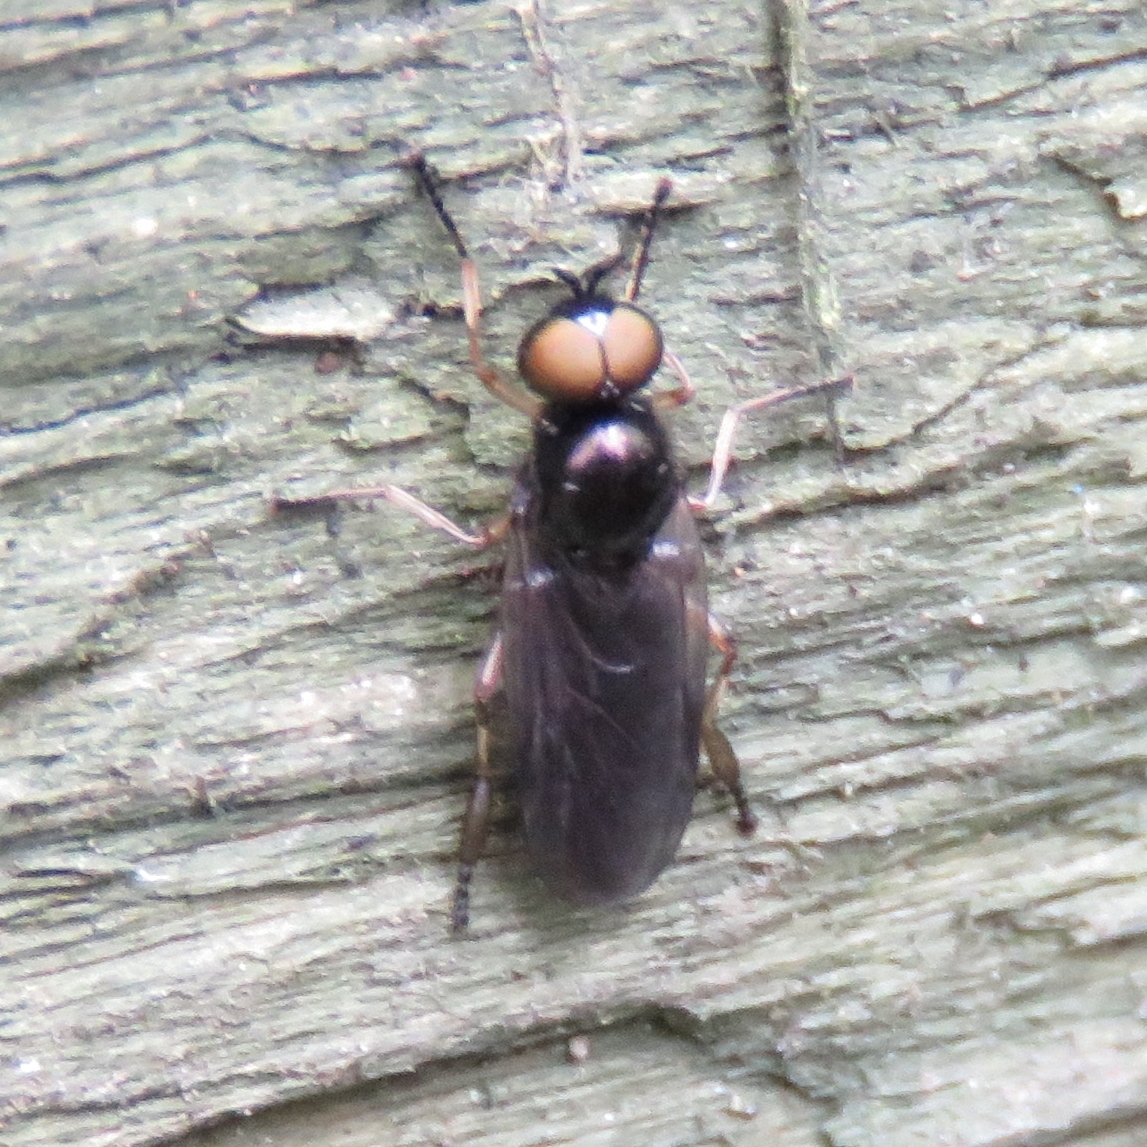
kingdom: Animalia
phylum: Arthropoda
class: Insecta
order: Diptera
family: Stratiomyidae
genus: Beris
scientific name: Beris chalybata
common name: Murky-legged black legionnaire
